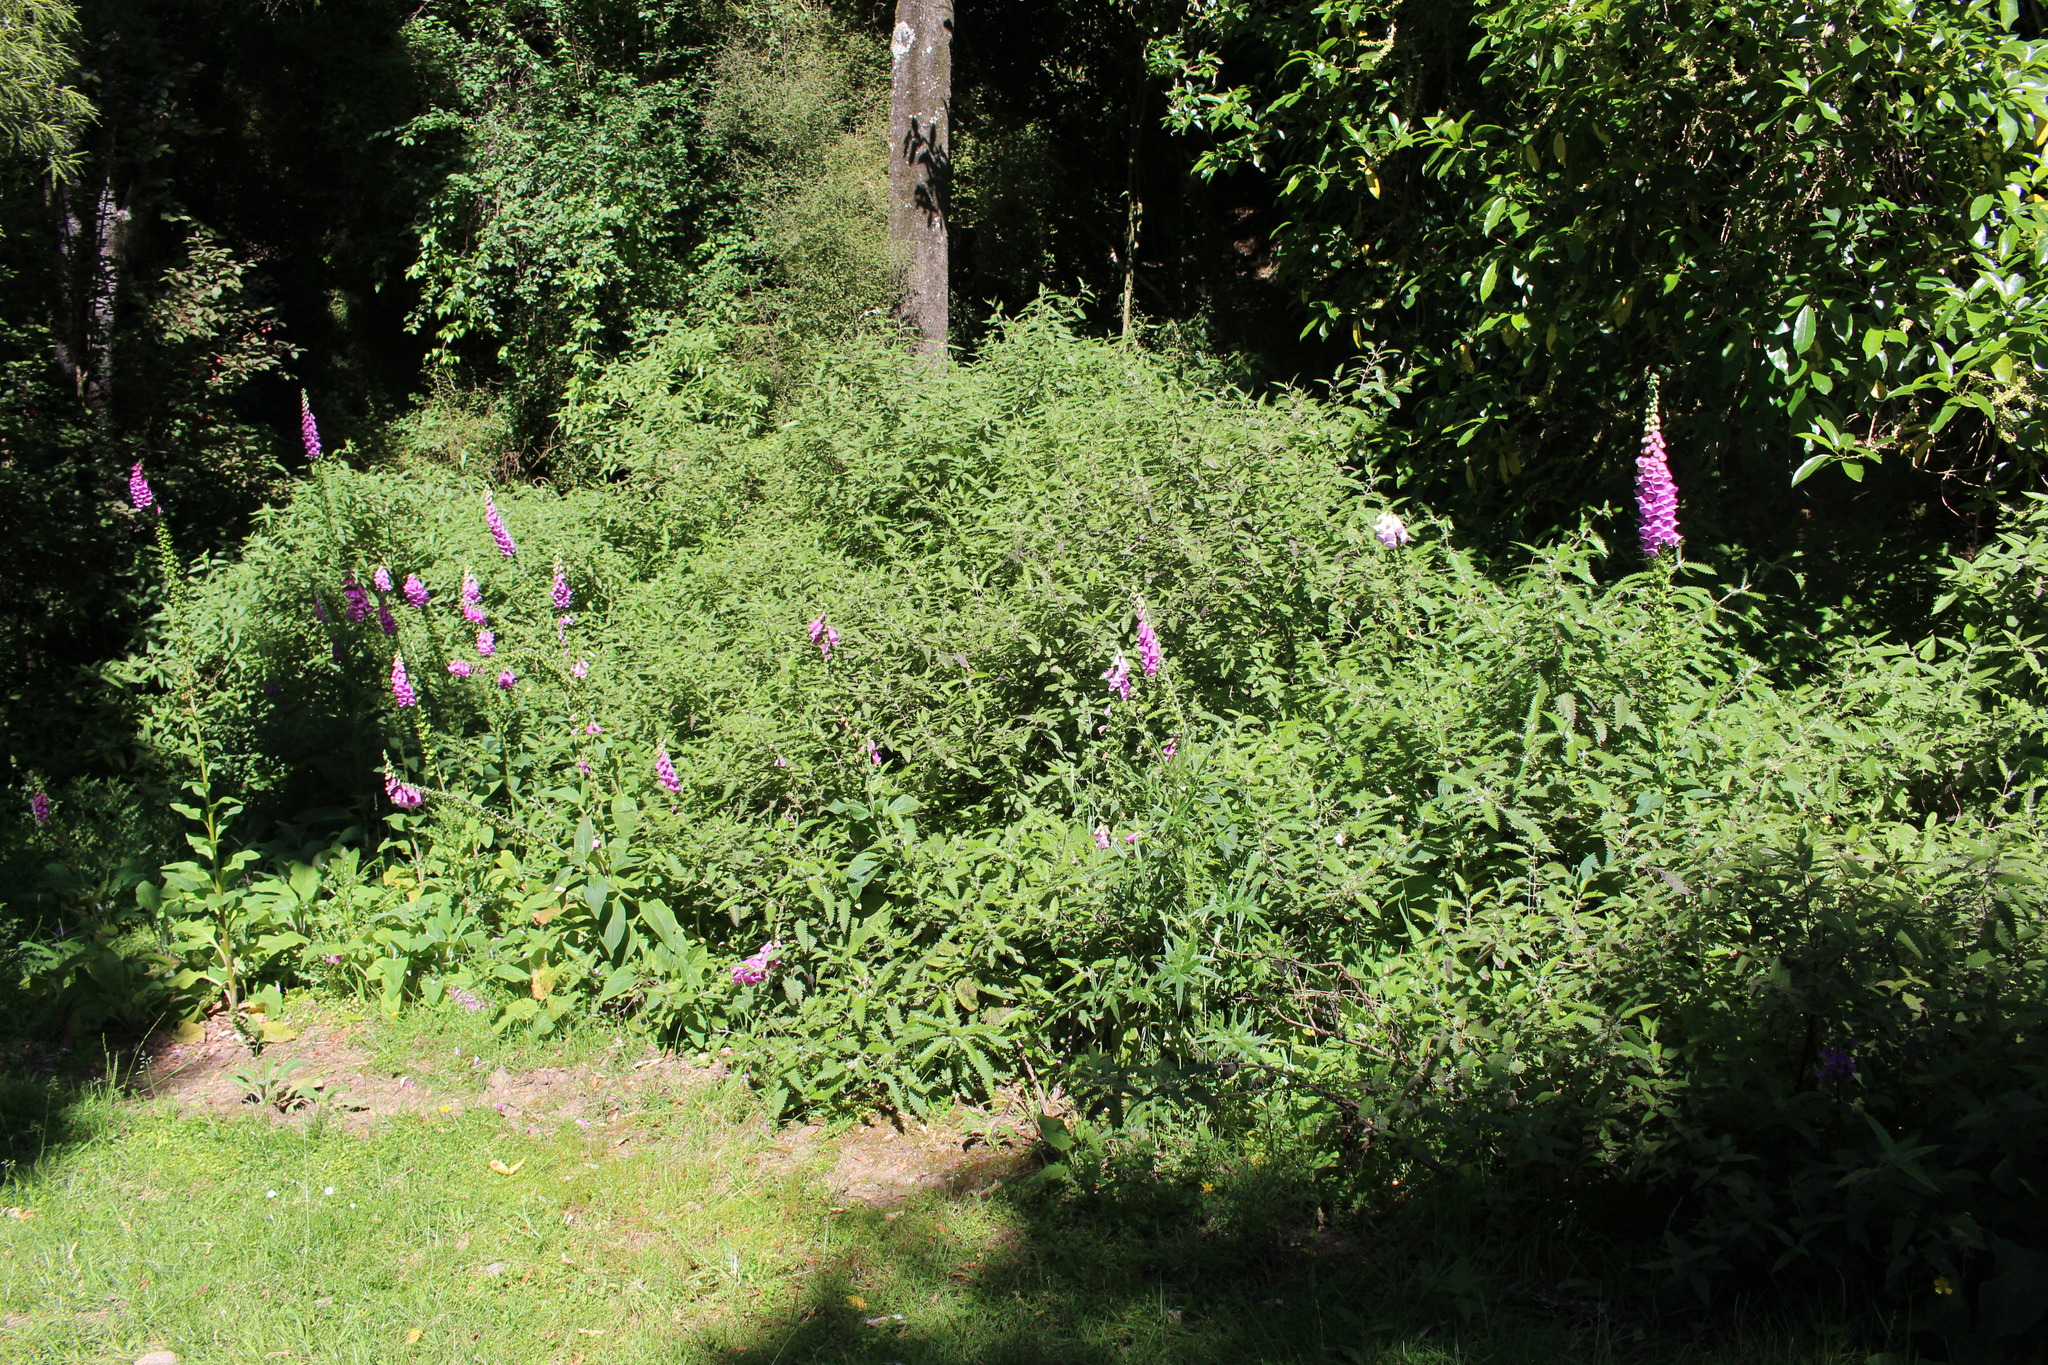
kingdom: Plantae
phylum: Tracheophyta
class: Magnoliopsida
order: Rosales
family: Urticaceae
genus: Urtica
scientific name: Urtica ferox
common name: Tree nettle
